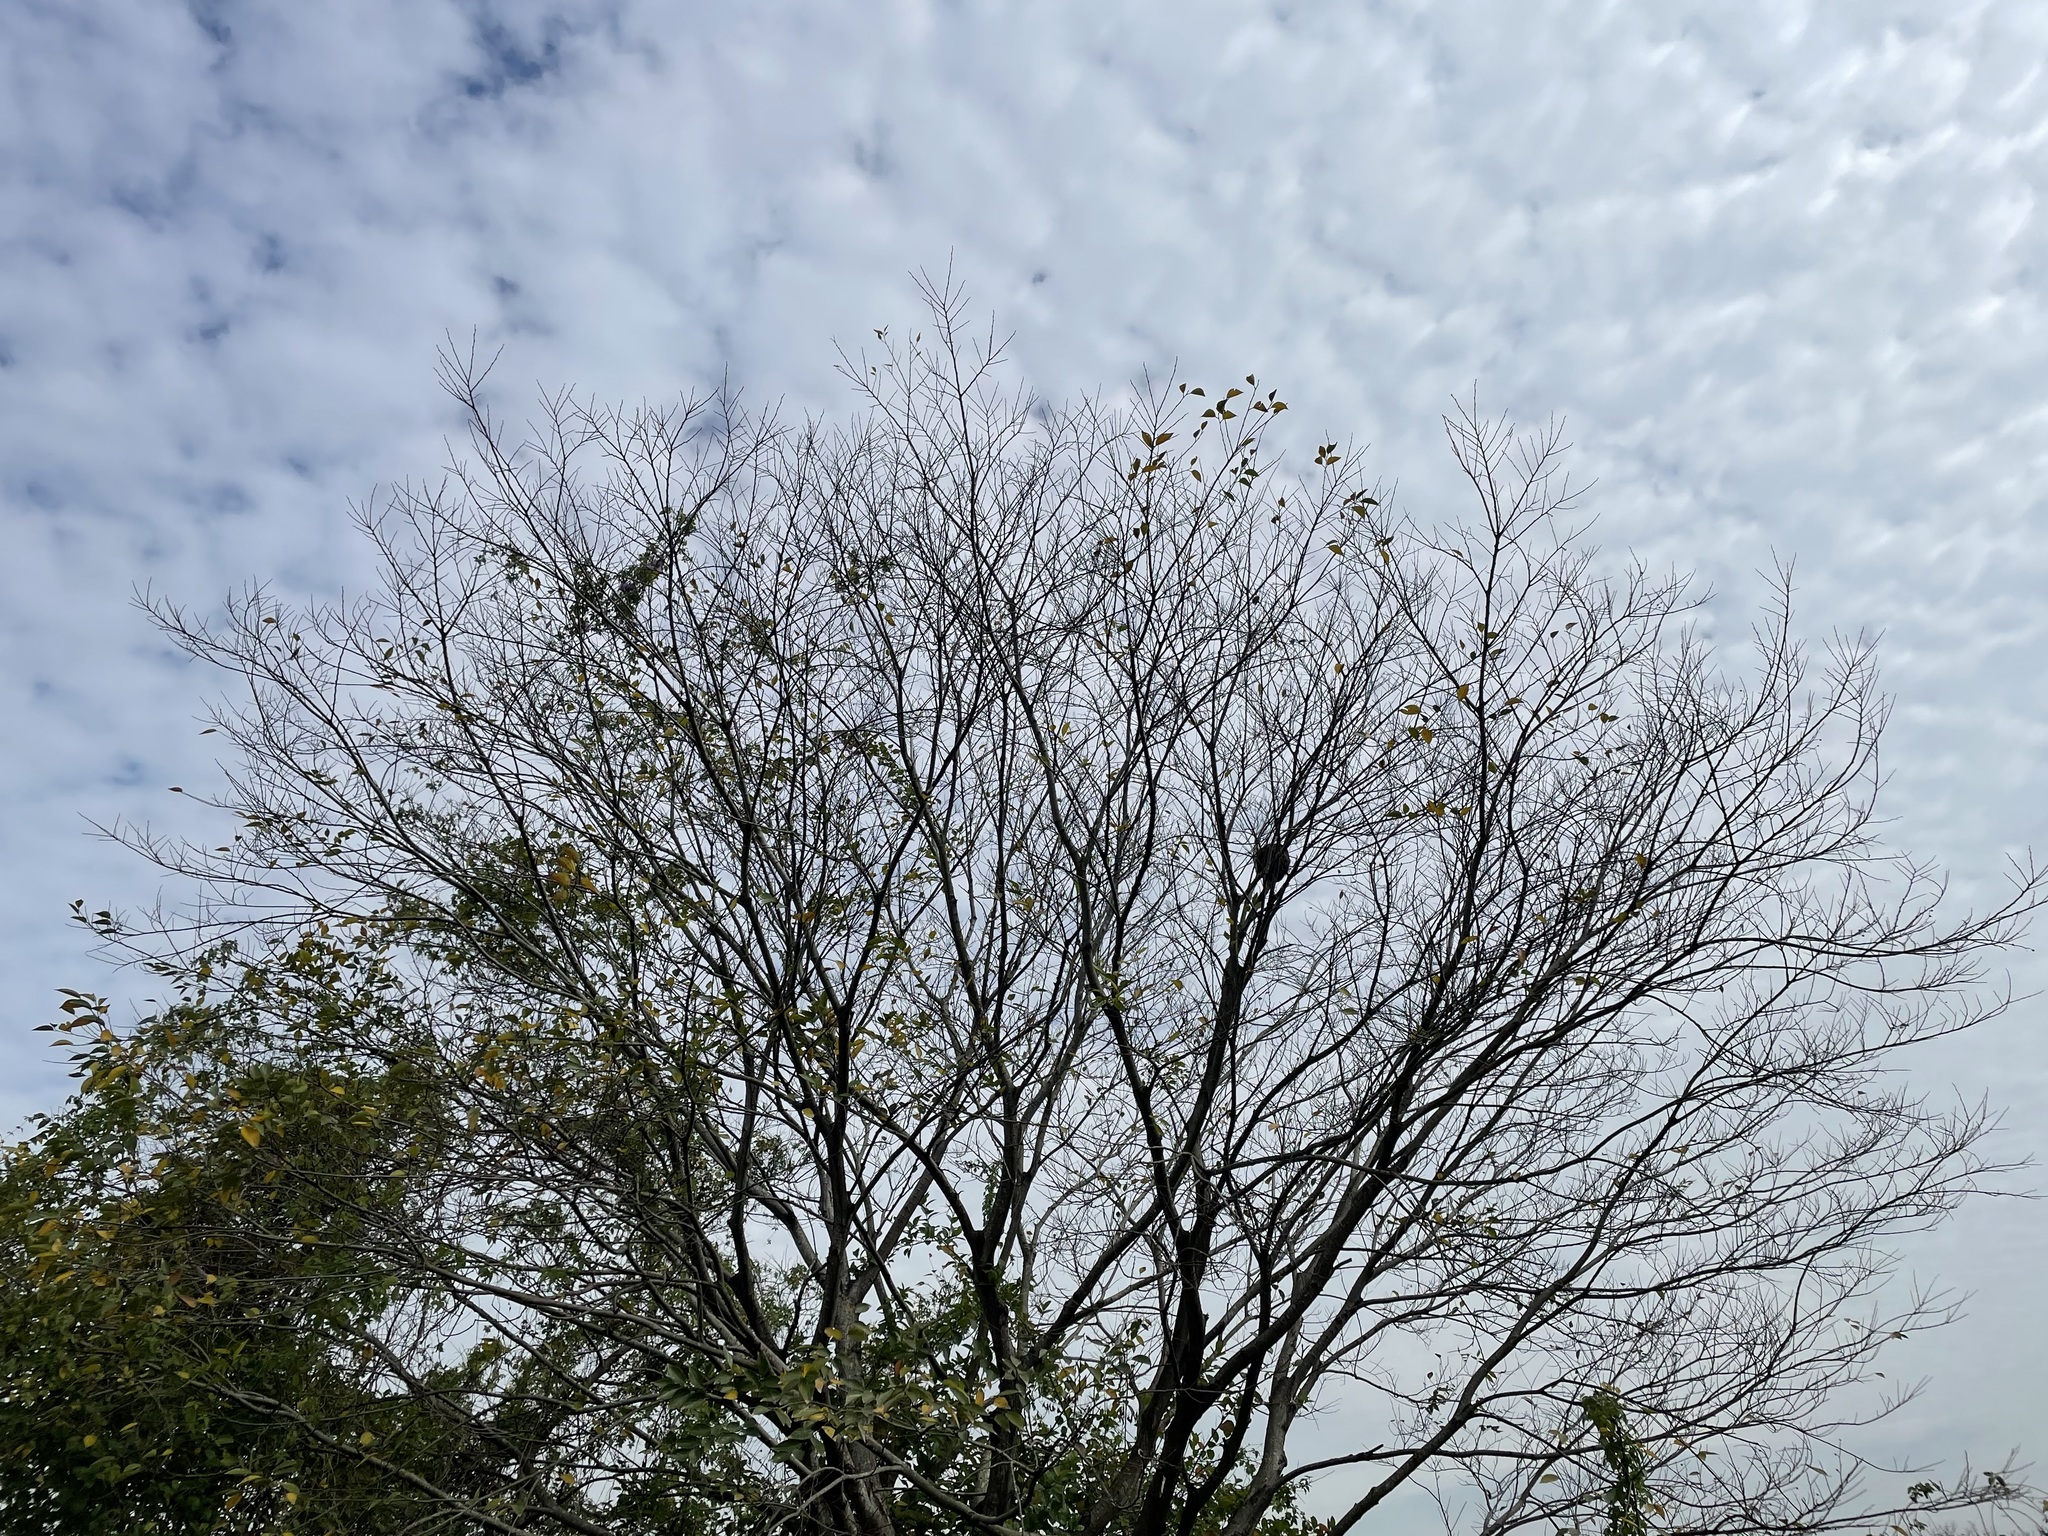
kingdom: Plantae
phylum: Tracheophyta
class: Magnoliopsida
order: Rosales
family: Cannabaceae
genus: Celtis
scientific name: Celtis sinensis
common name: Chinese hackberry
